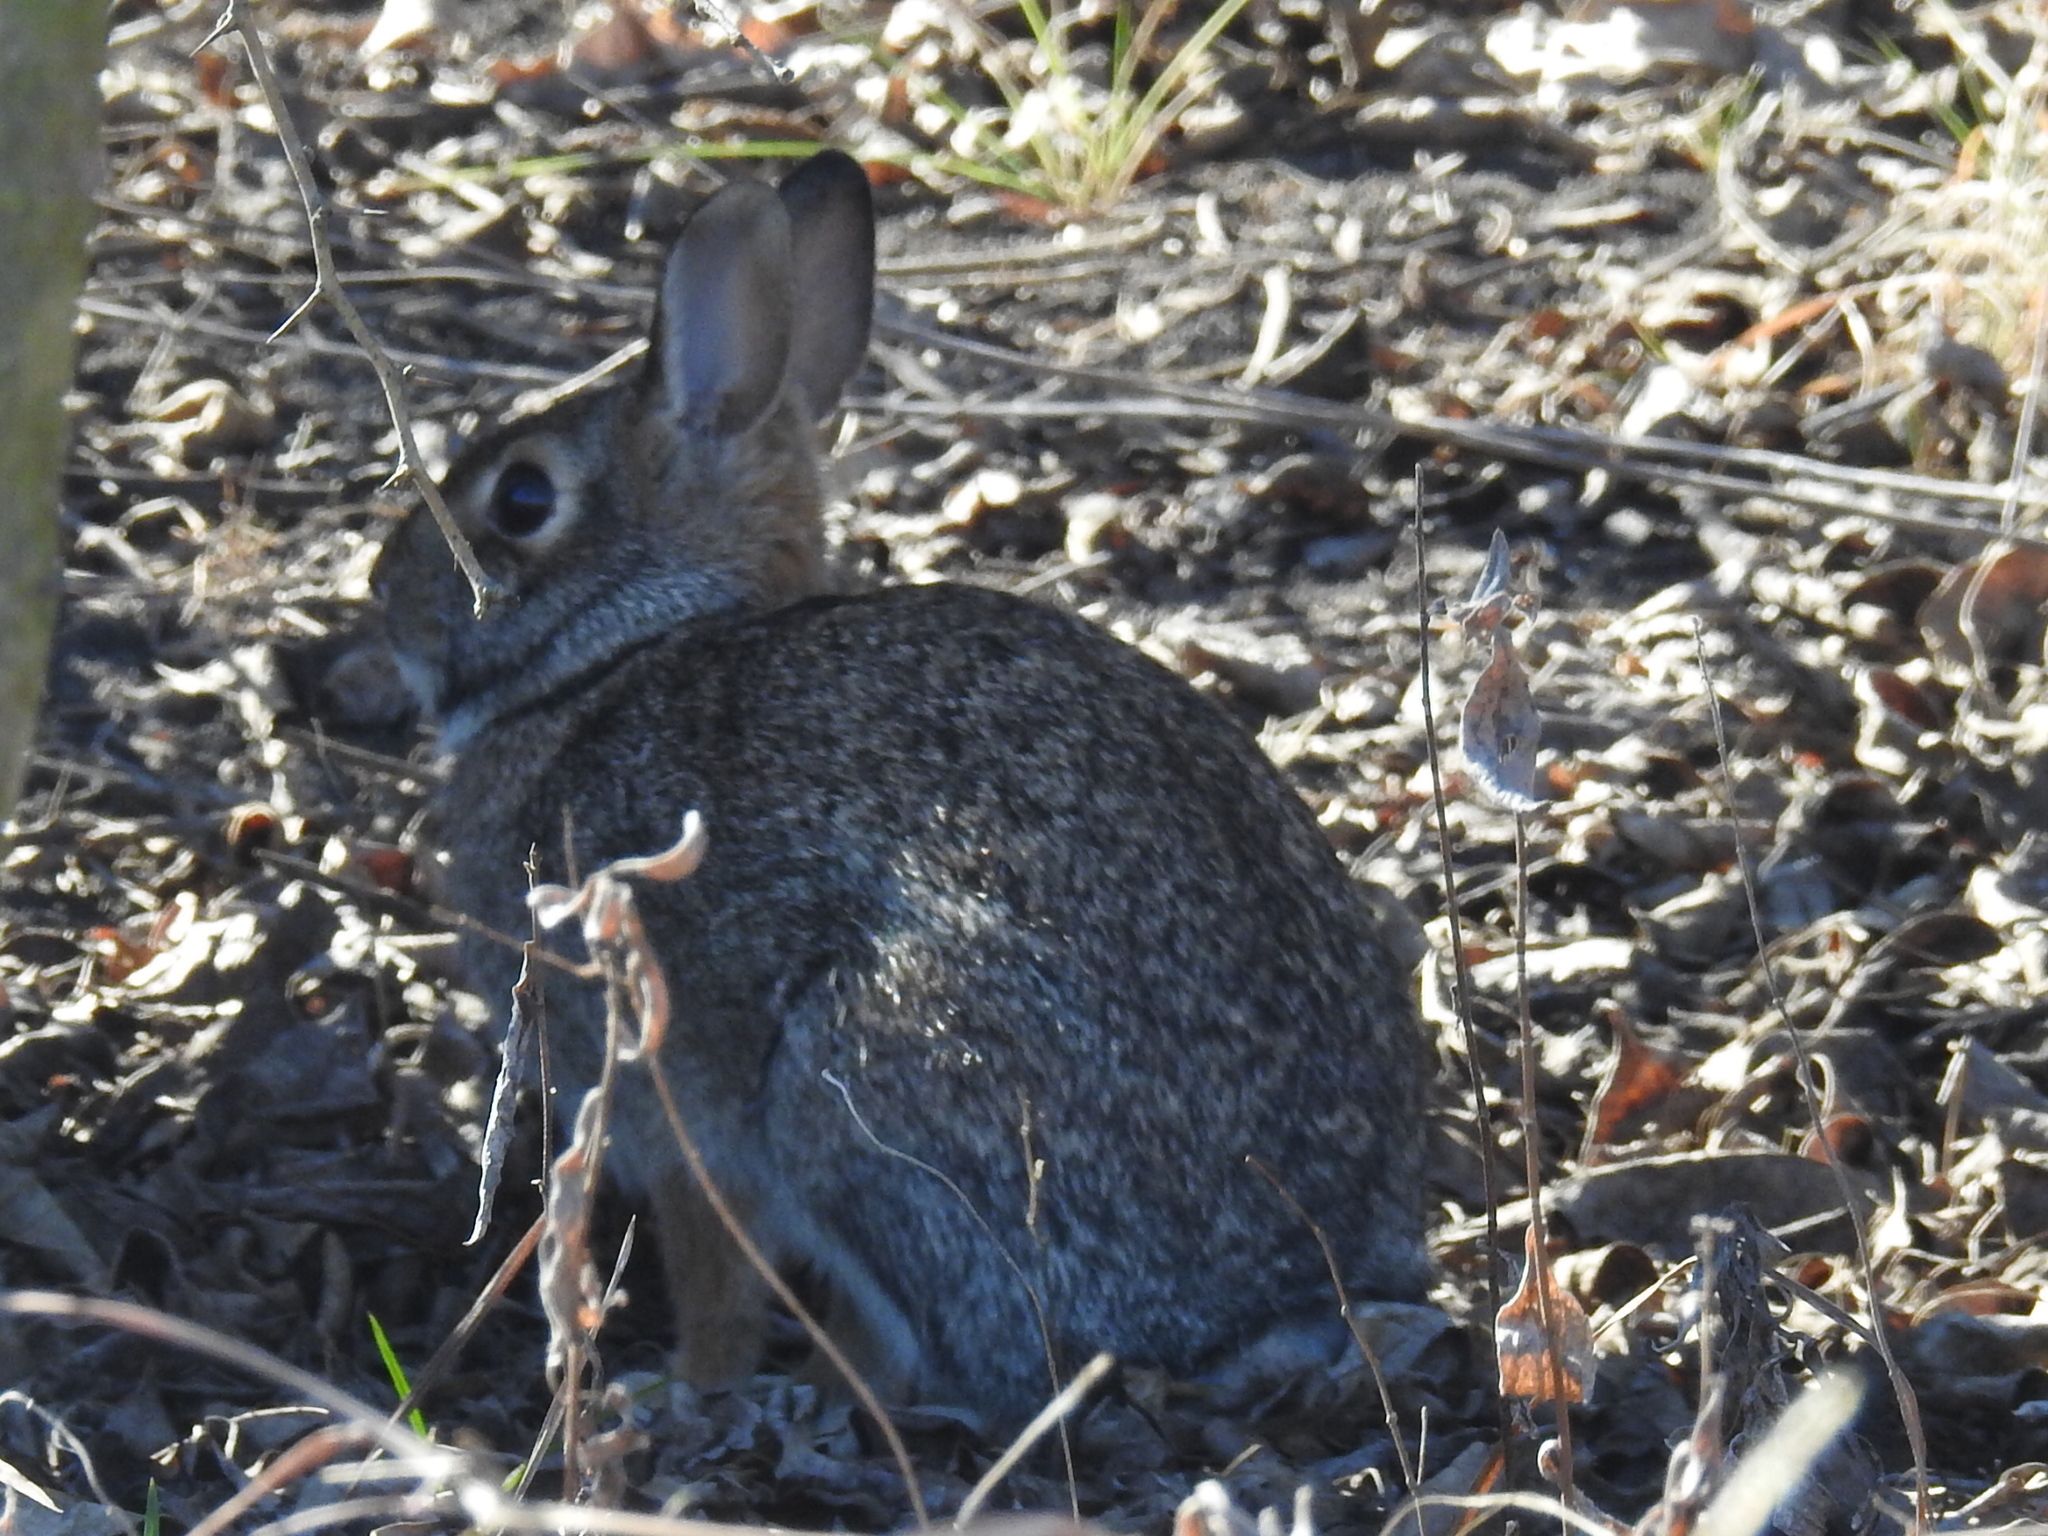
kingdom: Animalia
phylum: Chordata
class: Mammalia
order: Lagomorpha
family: Leporidae
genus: Sylvilagus
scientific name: Sylvilagus floridanus
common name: Eastern cottontail
